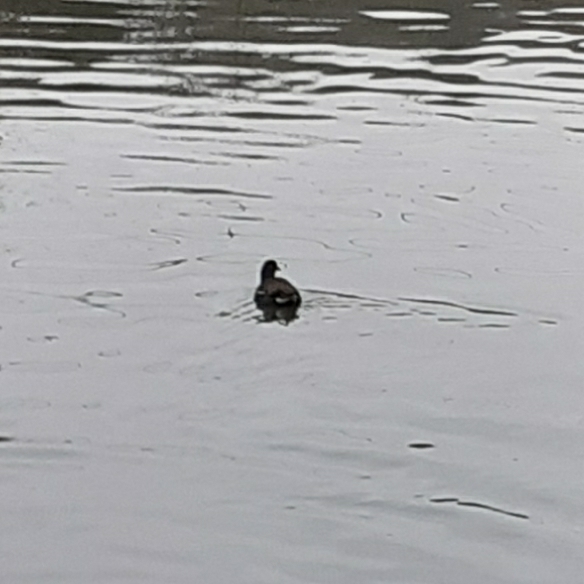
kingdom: Animalia
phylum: Chordata
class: Aves
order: Gruiformes
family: Rallidae
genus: Gallinula
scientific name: Gallinula chloropus
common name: Common moorhen
